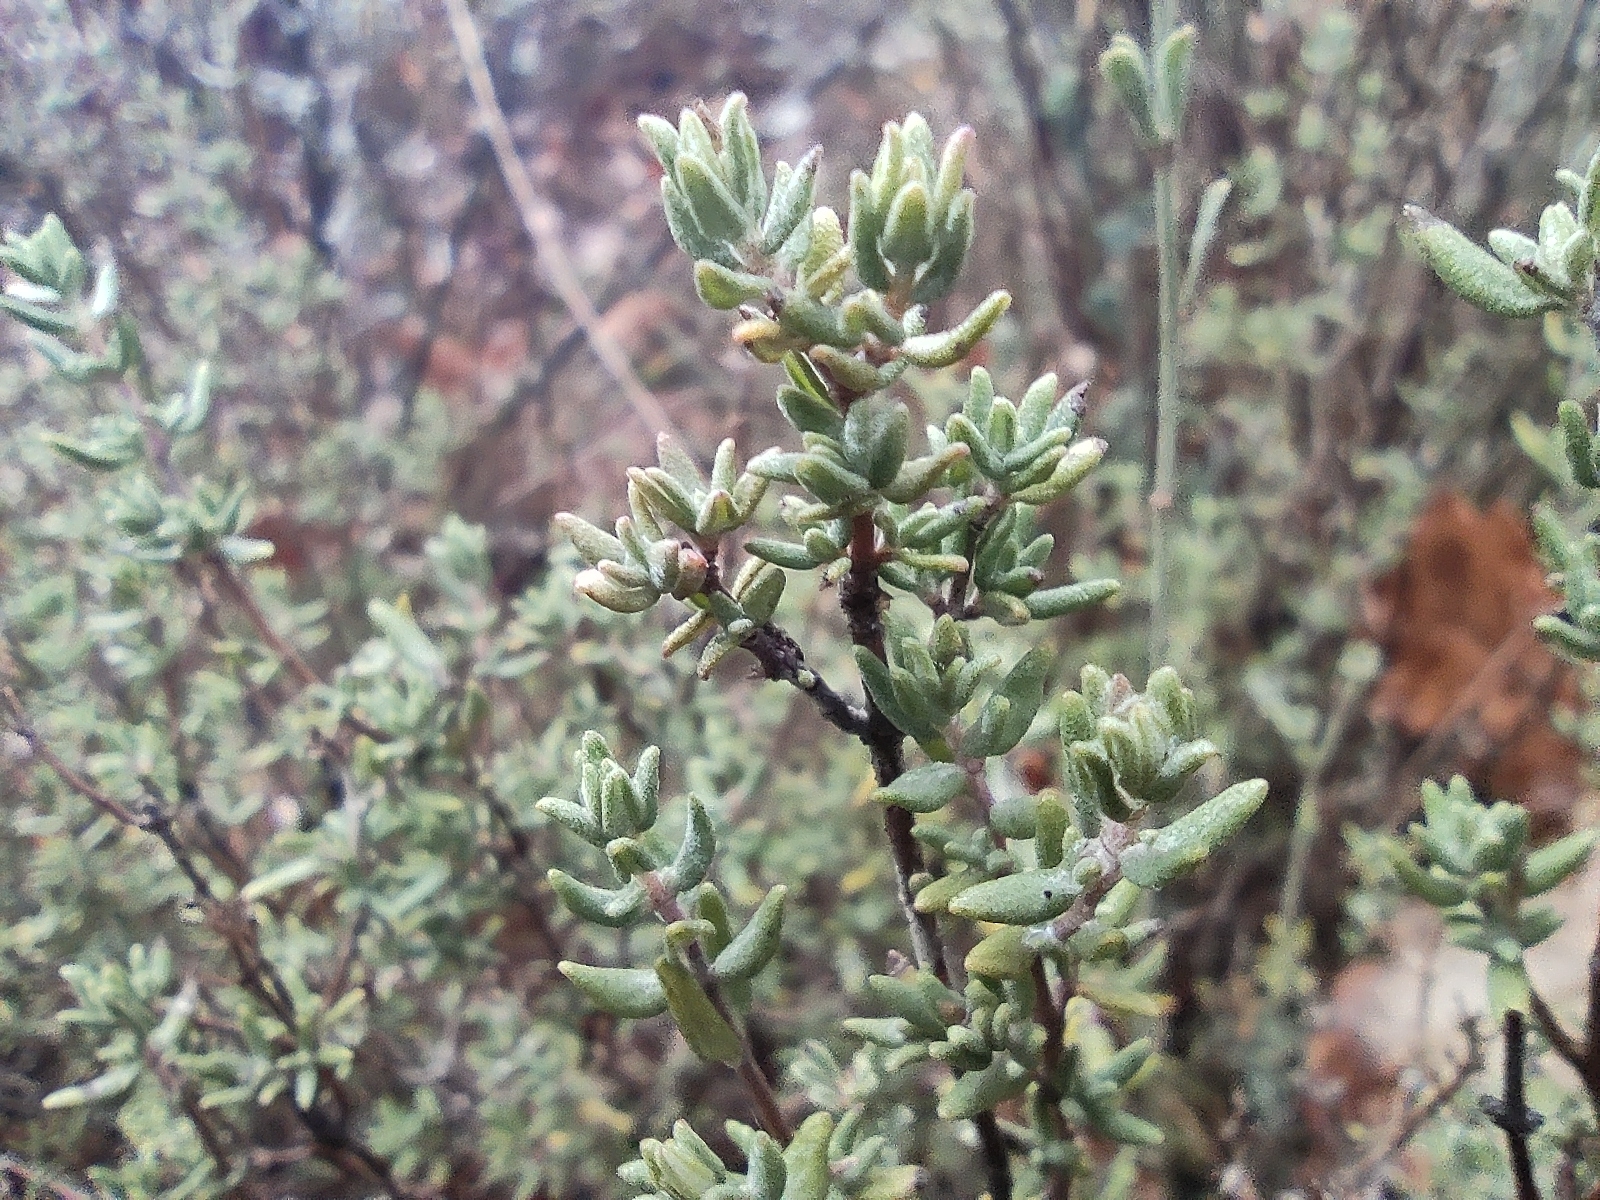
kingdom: Plantae
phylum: Tracheophyta
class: Magnoliopsida
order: Lamiales
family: Lamiaceae
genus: Thymus
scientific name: Thymus vulgaris
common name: Garden thyme
